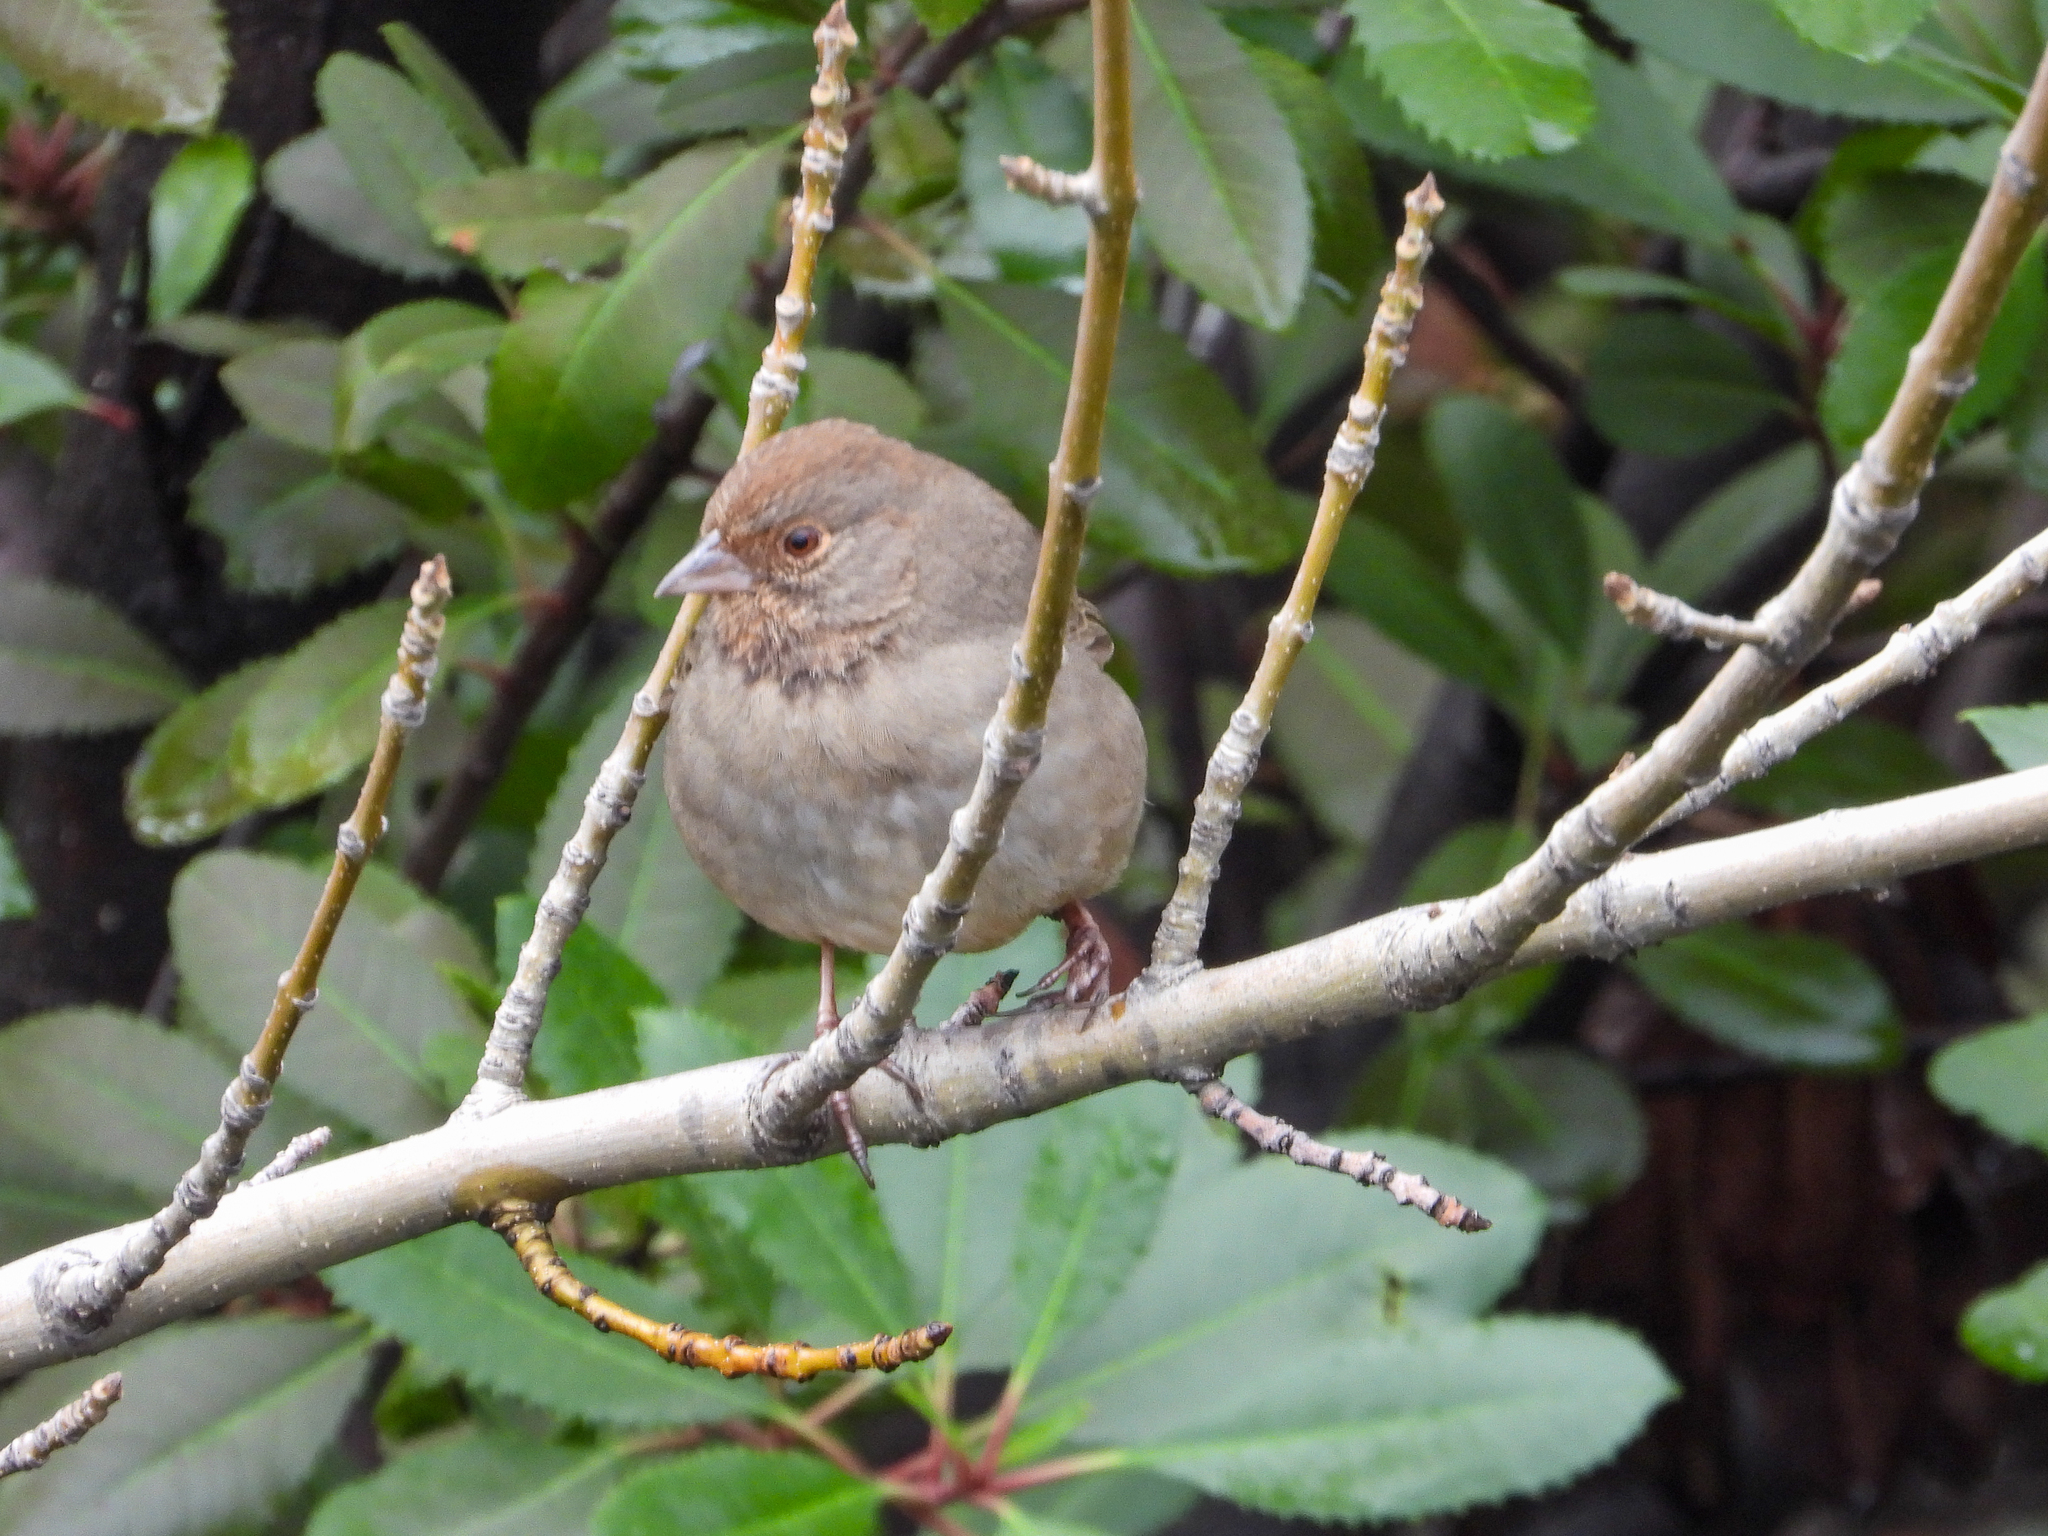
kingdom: Animalia
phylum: Chordata
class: Aves
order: Passeriformes
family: Passerellidae
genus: Melozone
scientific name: Melozone crissalis
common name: California towhee
